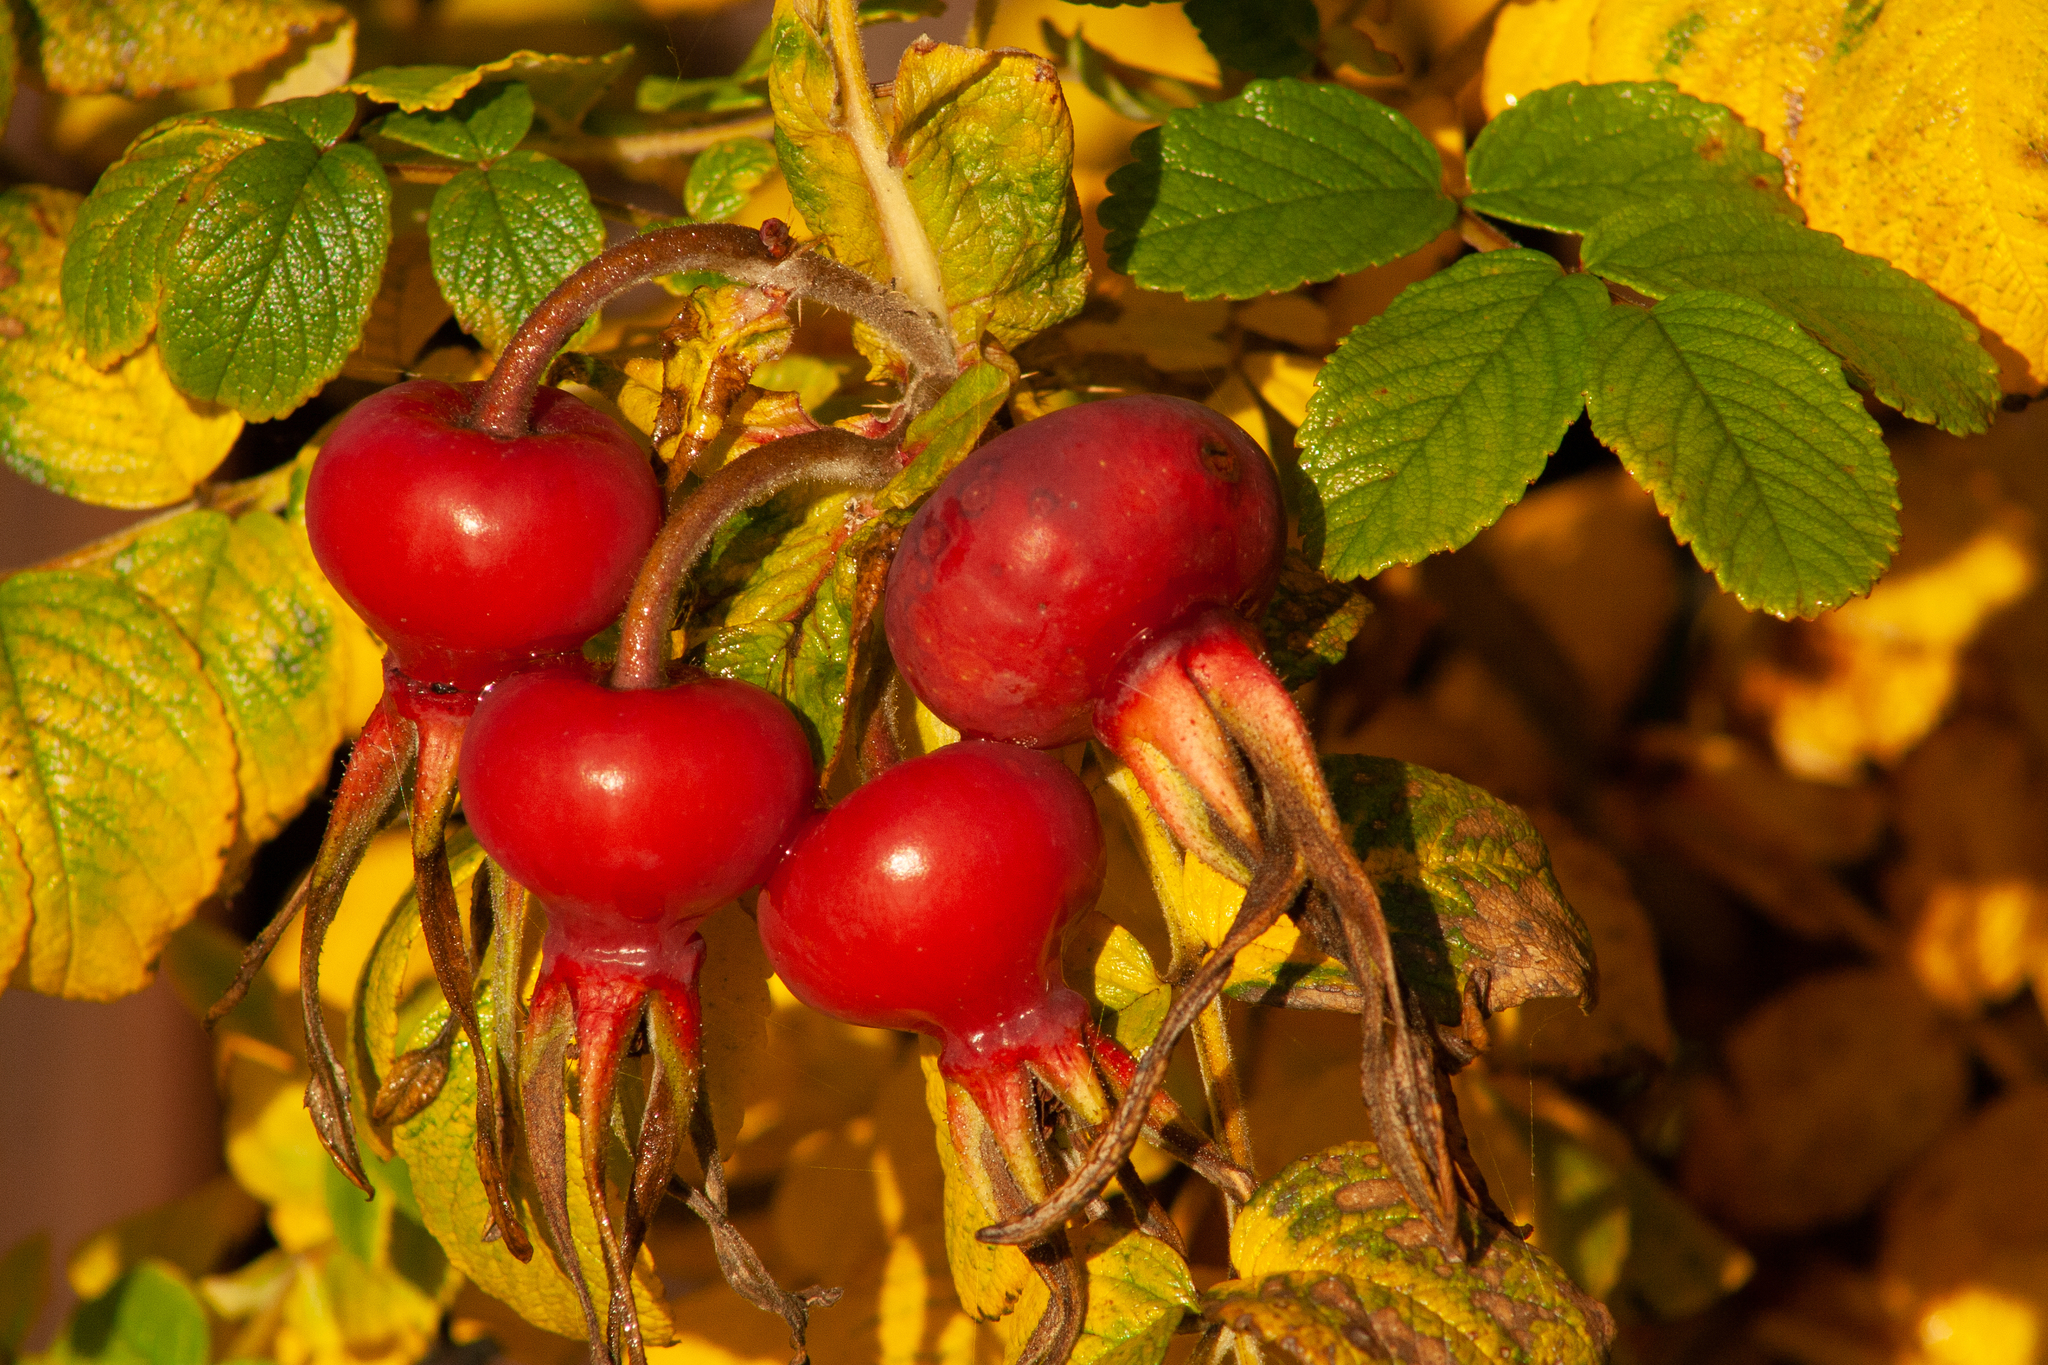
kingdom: Plantae
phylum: Tracheophyta
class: Magnoliopsida
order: Rosales
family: Rosaceae
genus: Rosa
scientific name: Rosa rugosa
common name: Japanese rose
